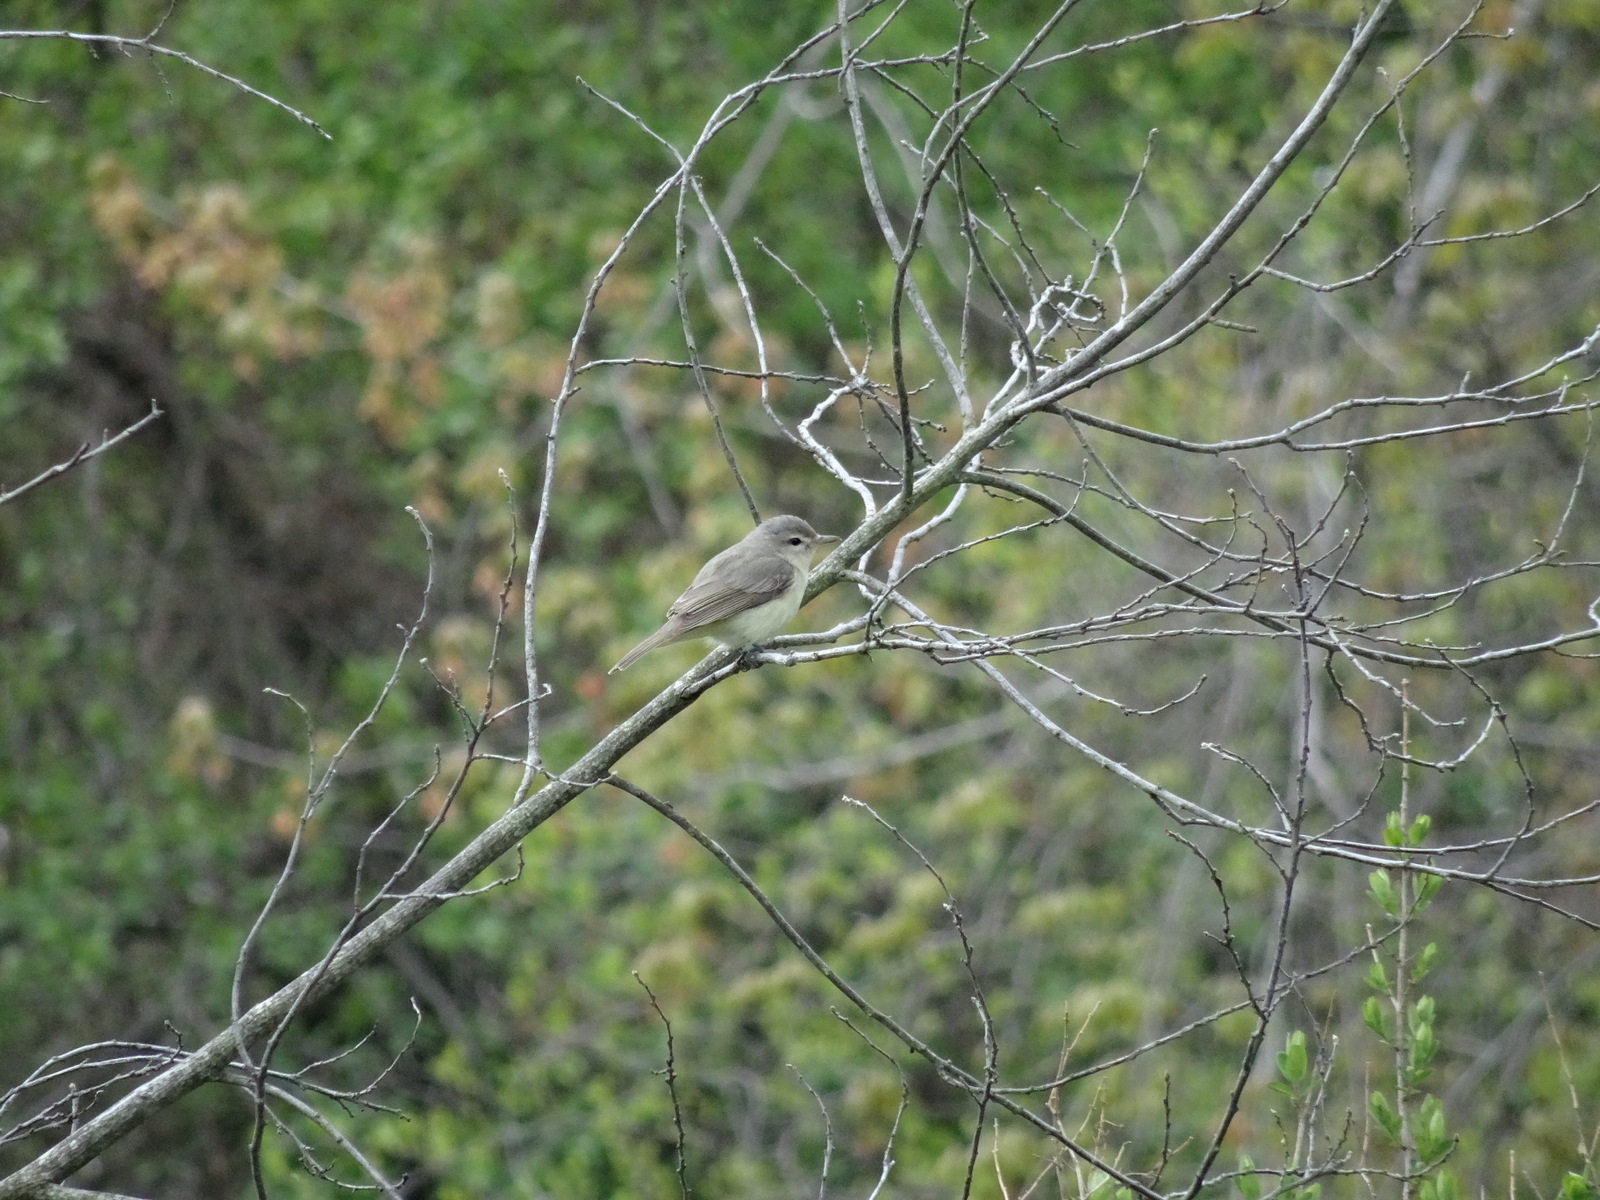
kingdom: Animalia
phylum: Chordata
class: Aves
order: Passeriformes
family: Vireonidae
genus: Vireo
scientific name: Vireo gilvus
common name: Warbling vireo
